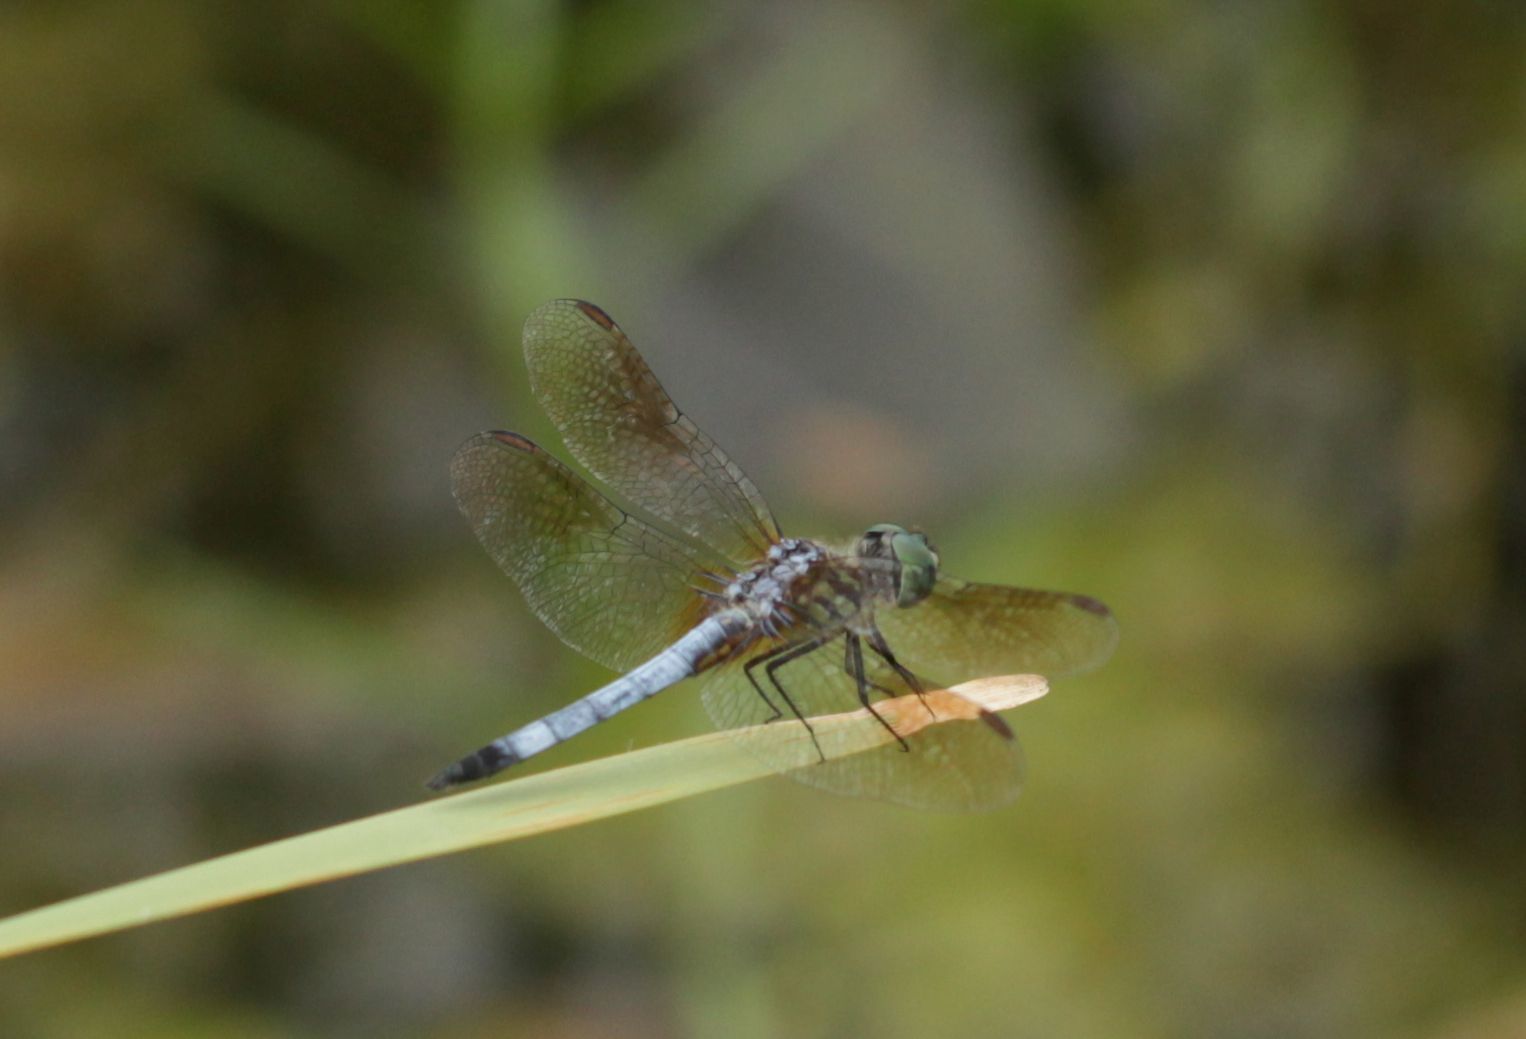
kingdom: Animalia
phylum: Arthropoda
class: Insecta
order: Odonata
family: Libellulidae
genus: Pachydiplax
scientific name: Pachydiplax longipennis
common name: Blue dasher
